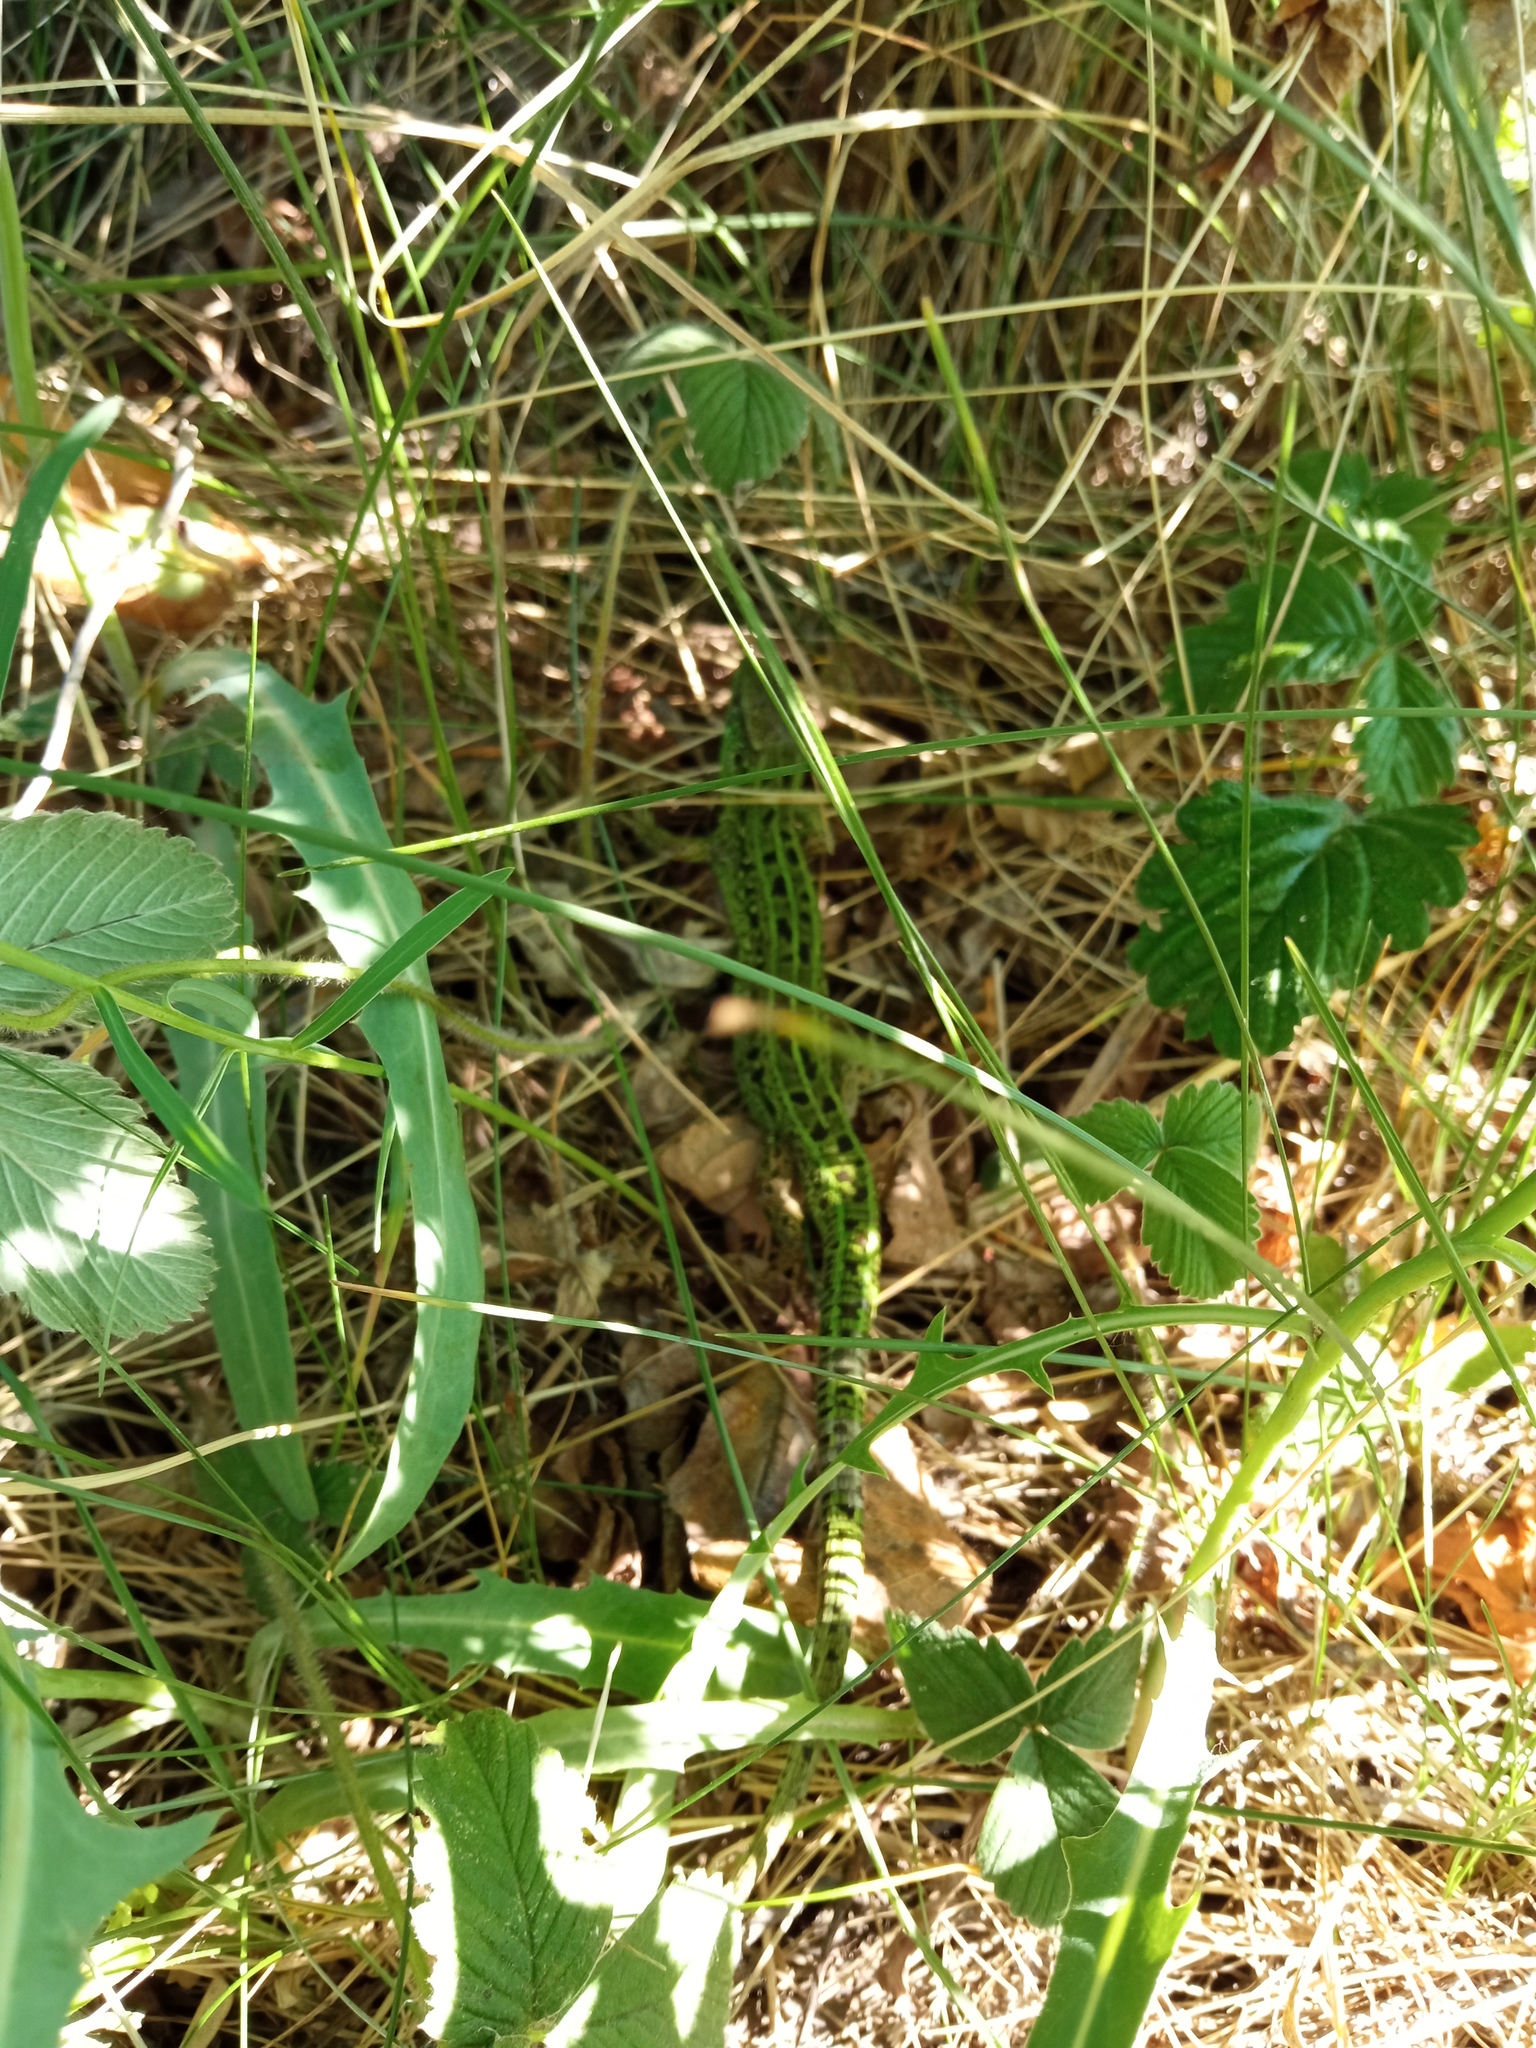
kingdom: Animalia
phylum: Chordata
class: Squamata
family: Lacertidae
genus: Lacerta
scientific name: Lacerta agilis
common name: Sand lizard
